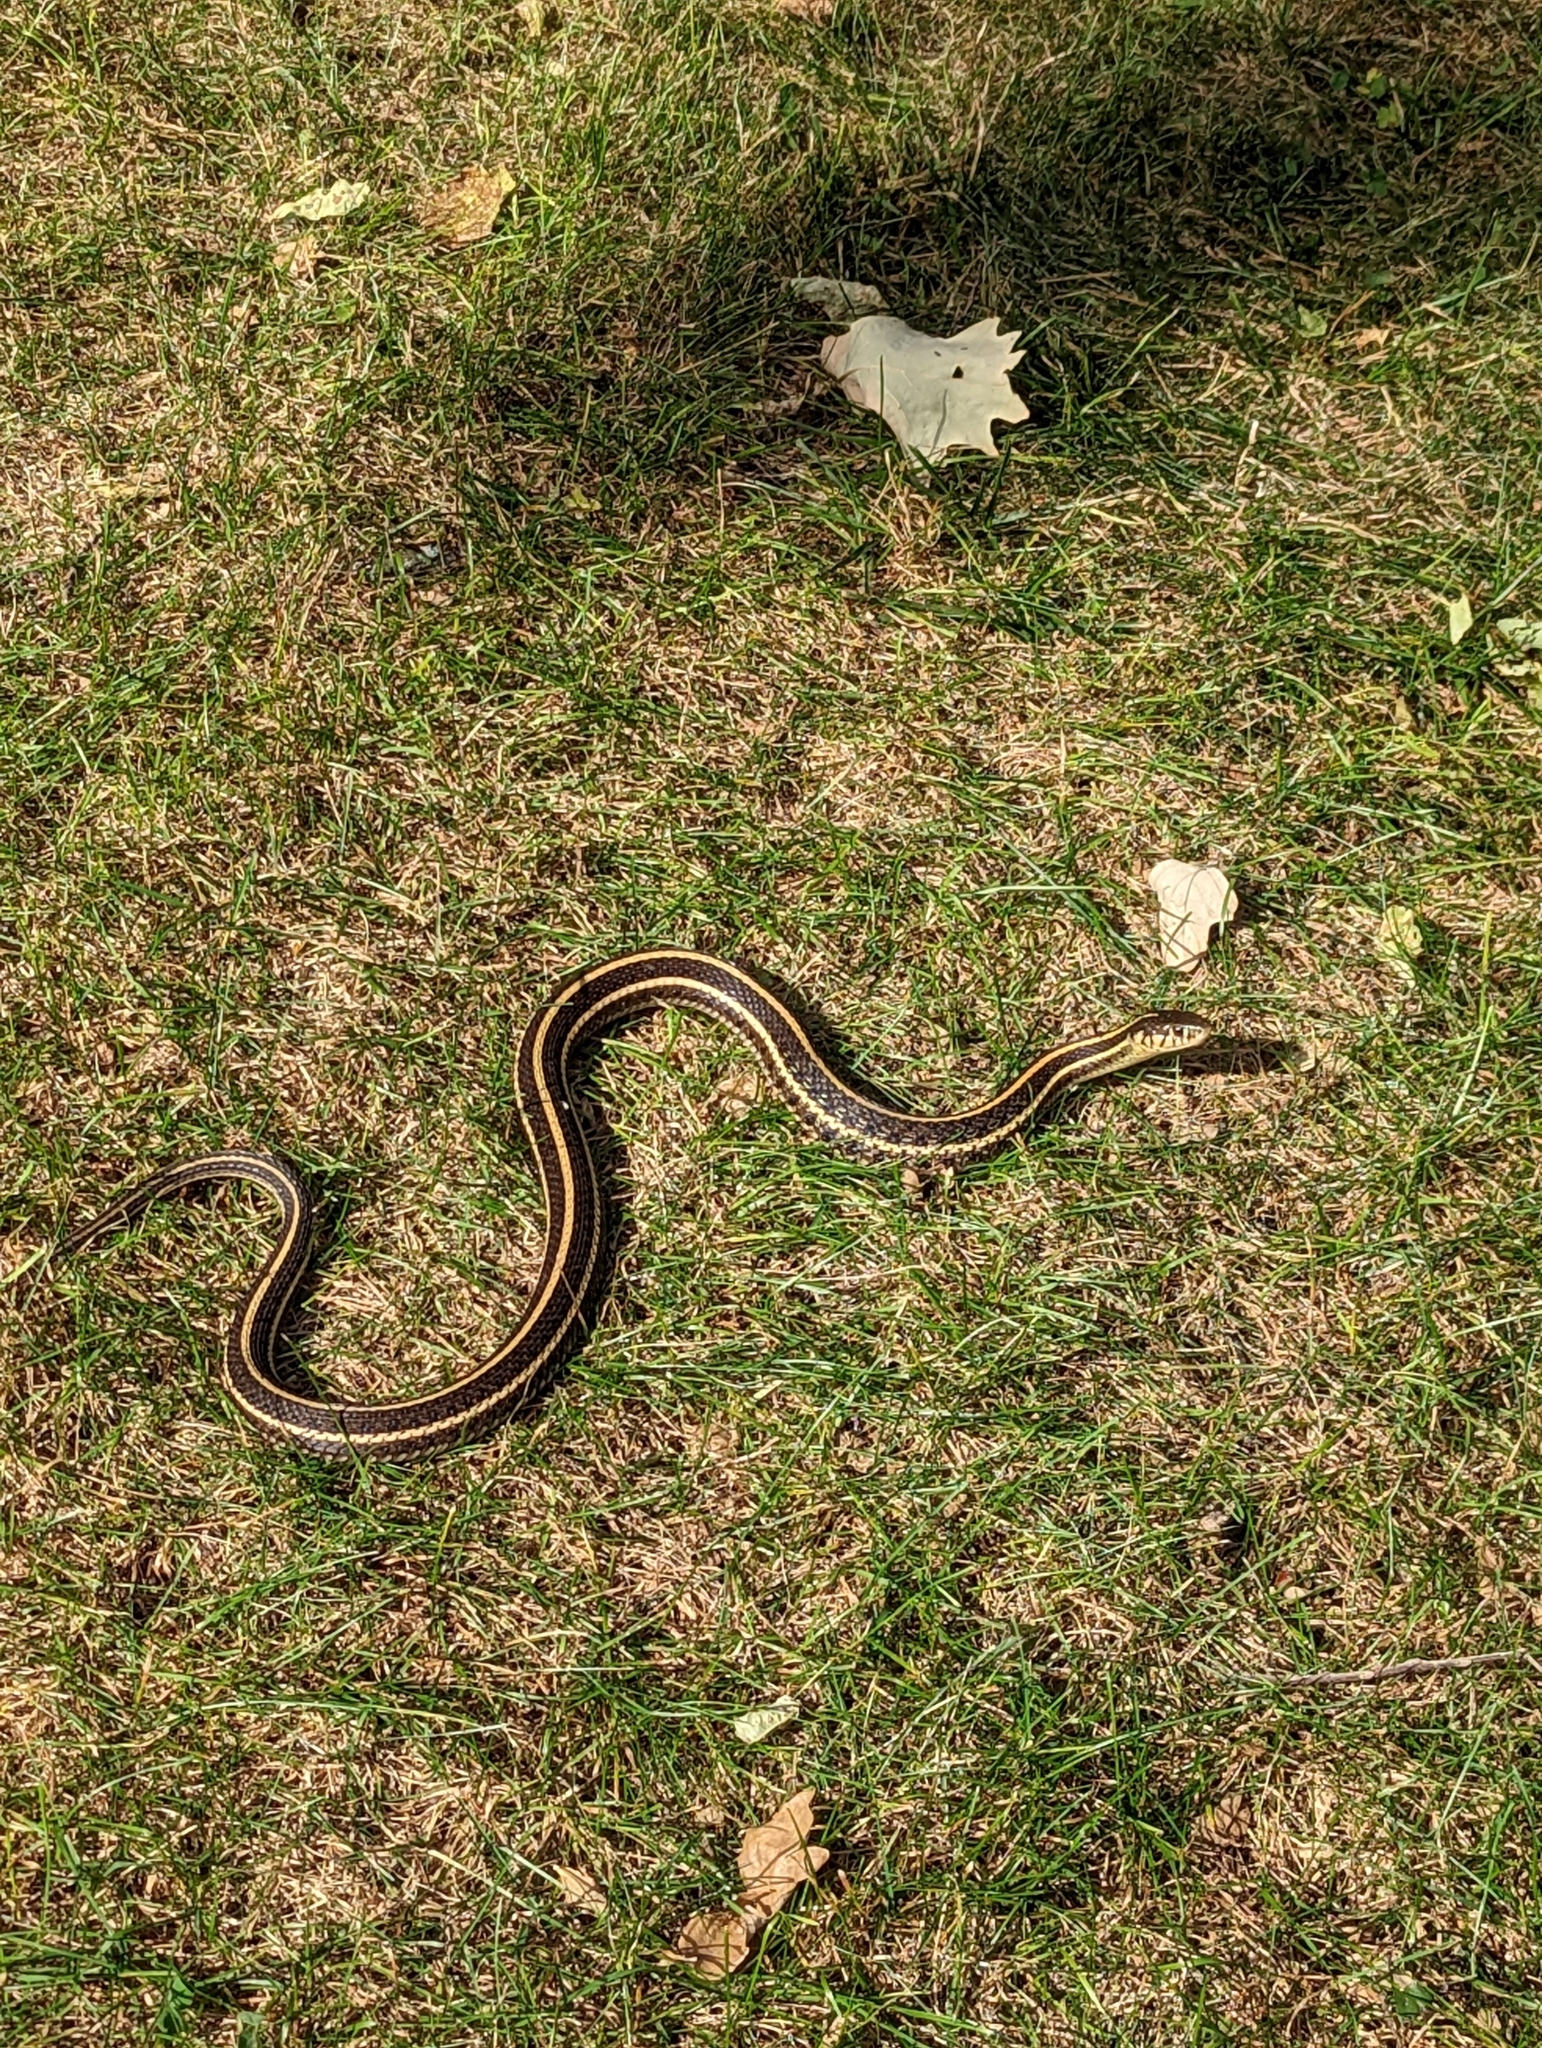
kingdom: Animalia
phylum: Chordata
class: Squamata
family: Colubridae
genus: Thamnophis
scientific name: Thamnophis radix
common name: Plains garter snake
